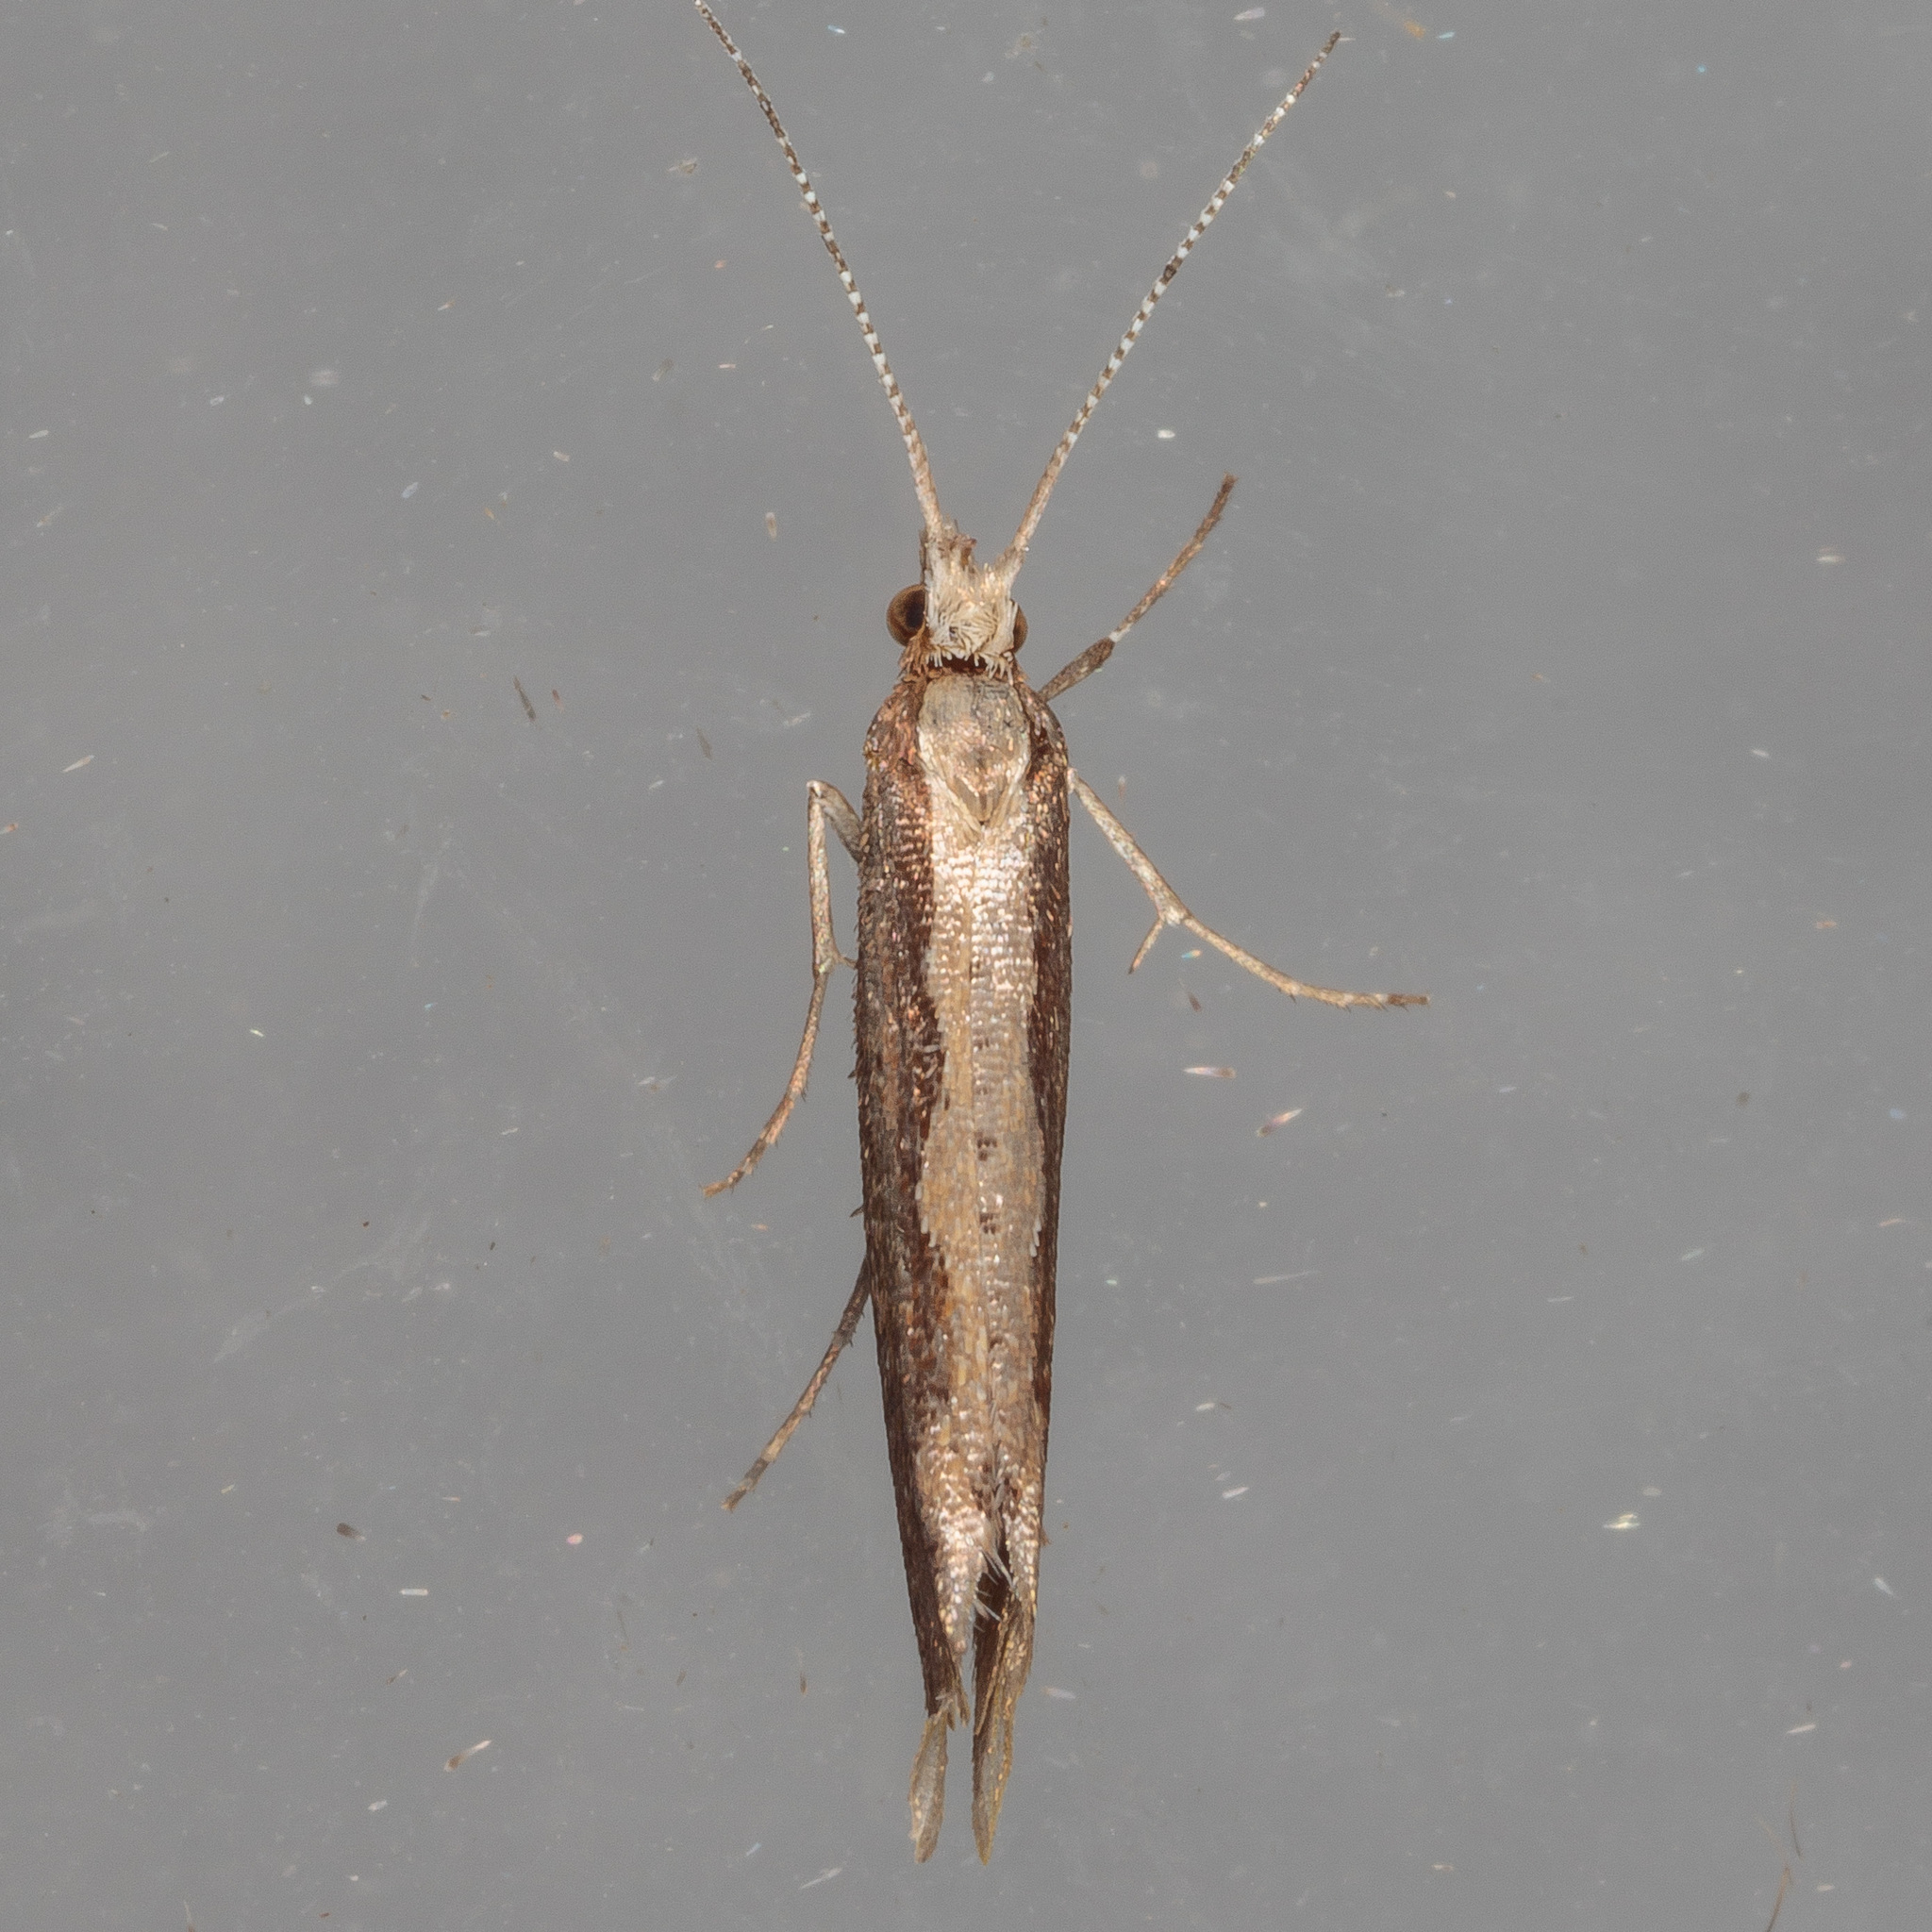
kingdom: Animalia
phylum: Arthropoda
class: Insecta
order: Lepidoptera
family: Plutellidae
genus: Plutella
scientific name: Plutella xylostella
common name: Diamond-back moth
